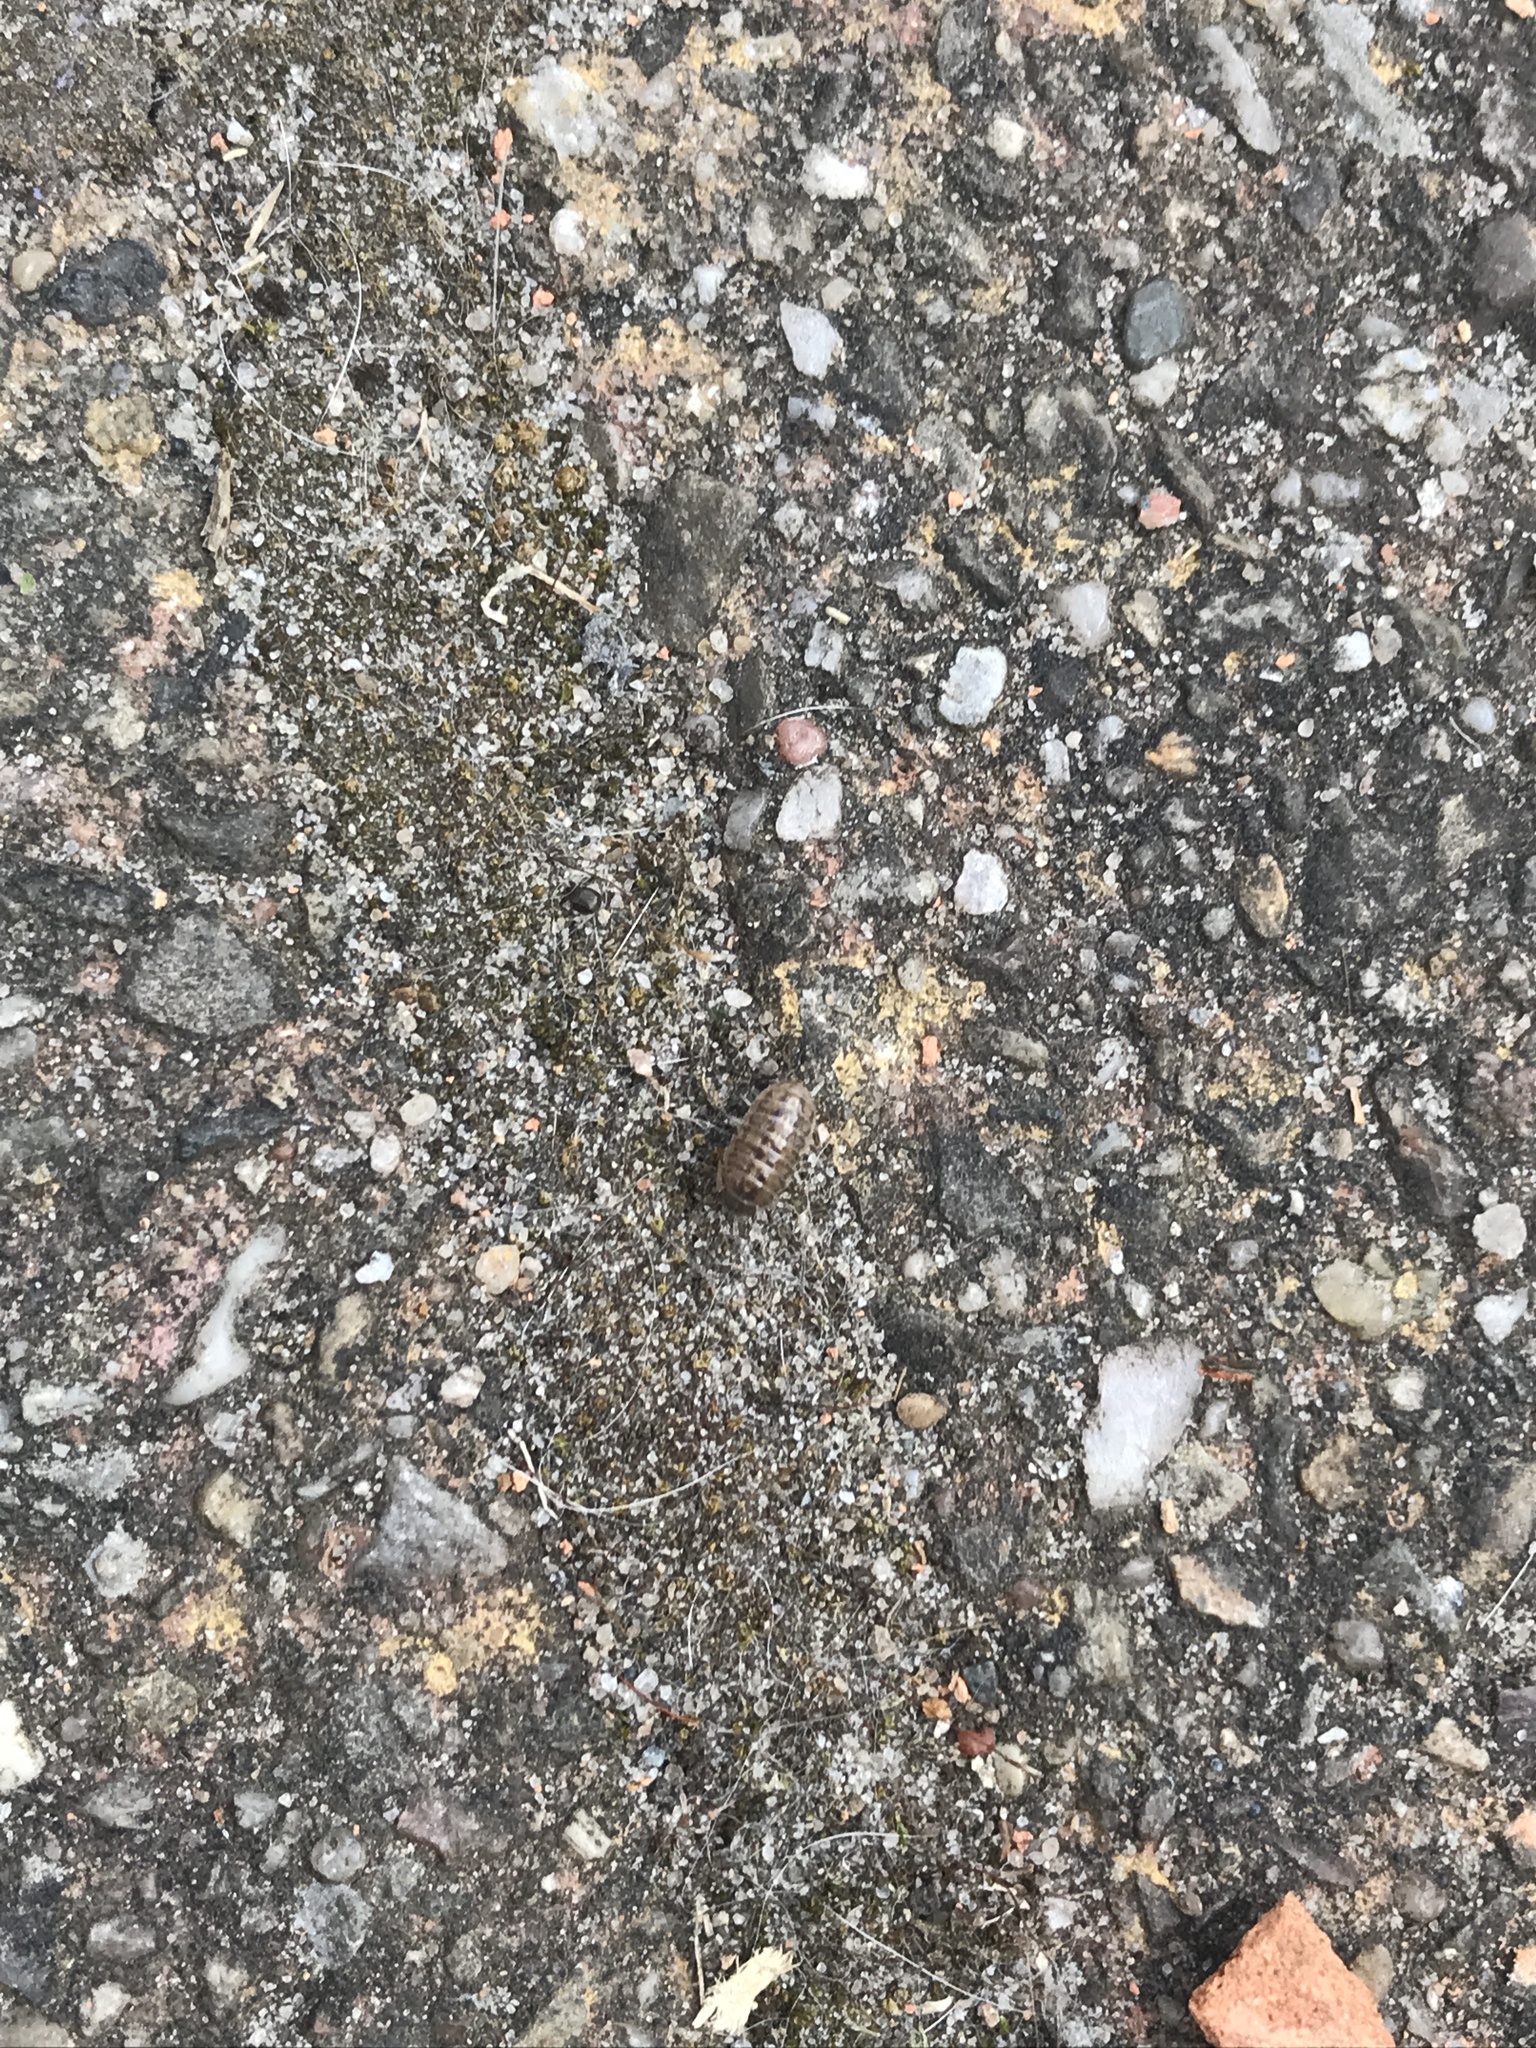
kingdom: Animalia
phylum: Arthropoda
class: Malacostraca
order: Isopoda
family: Armadillidiidae
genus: Armadillidium
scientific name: Armadillidium vulgare
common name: Common pill woodlouse
